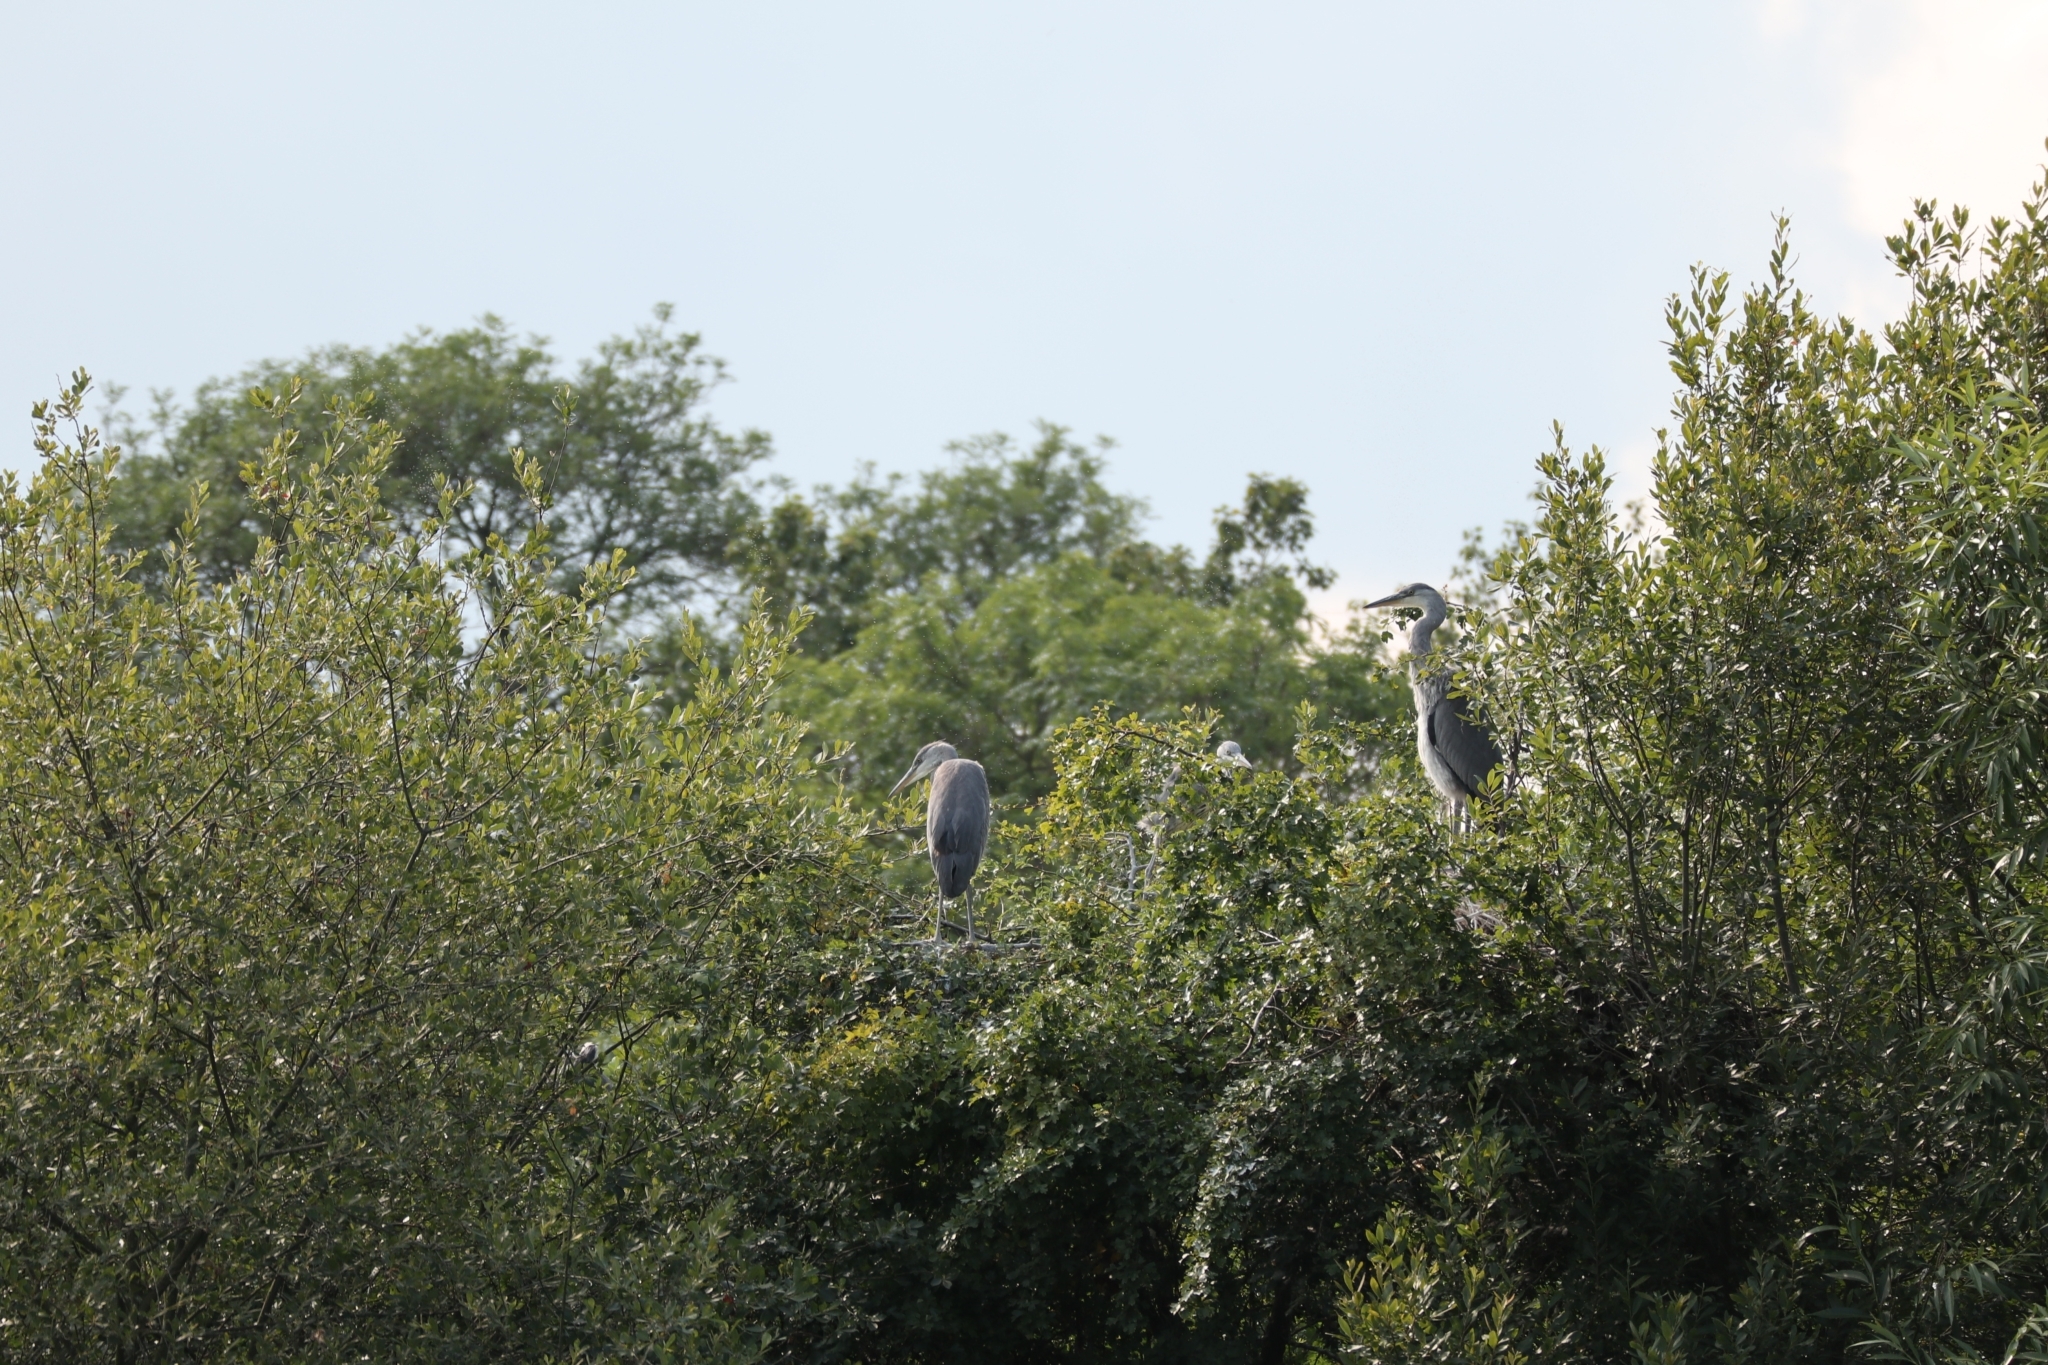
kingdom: Animalia
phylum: Chordata
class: Aves
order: Pelecaniformes
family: Ardeidae
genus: Ardea
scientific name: Ardea cinerea
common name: Grey heron
